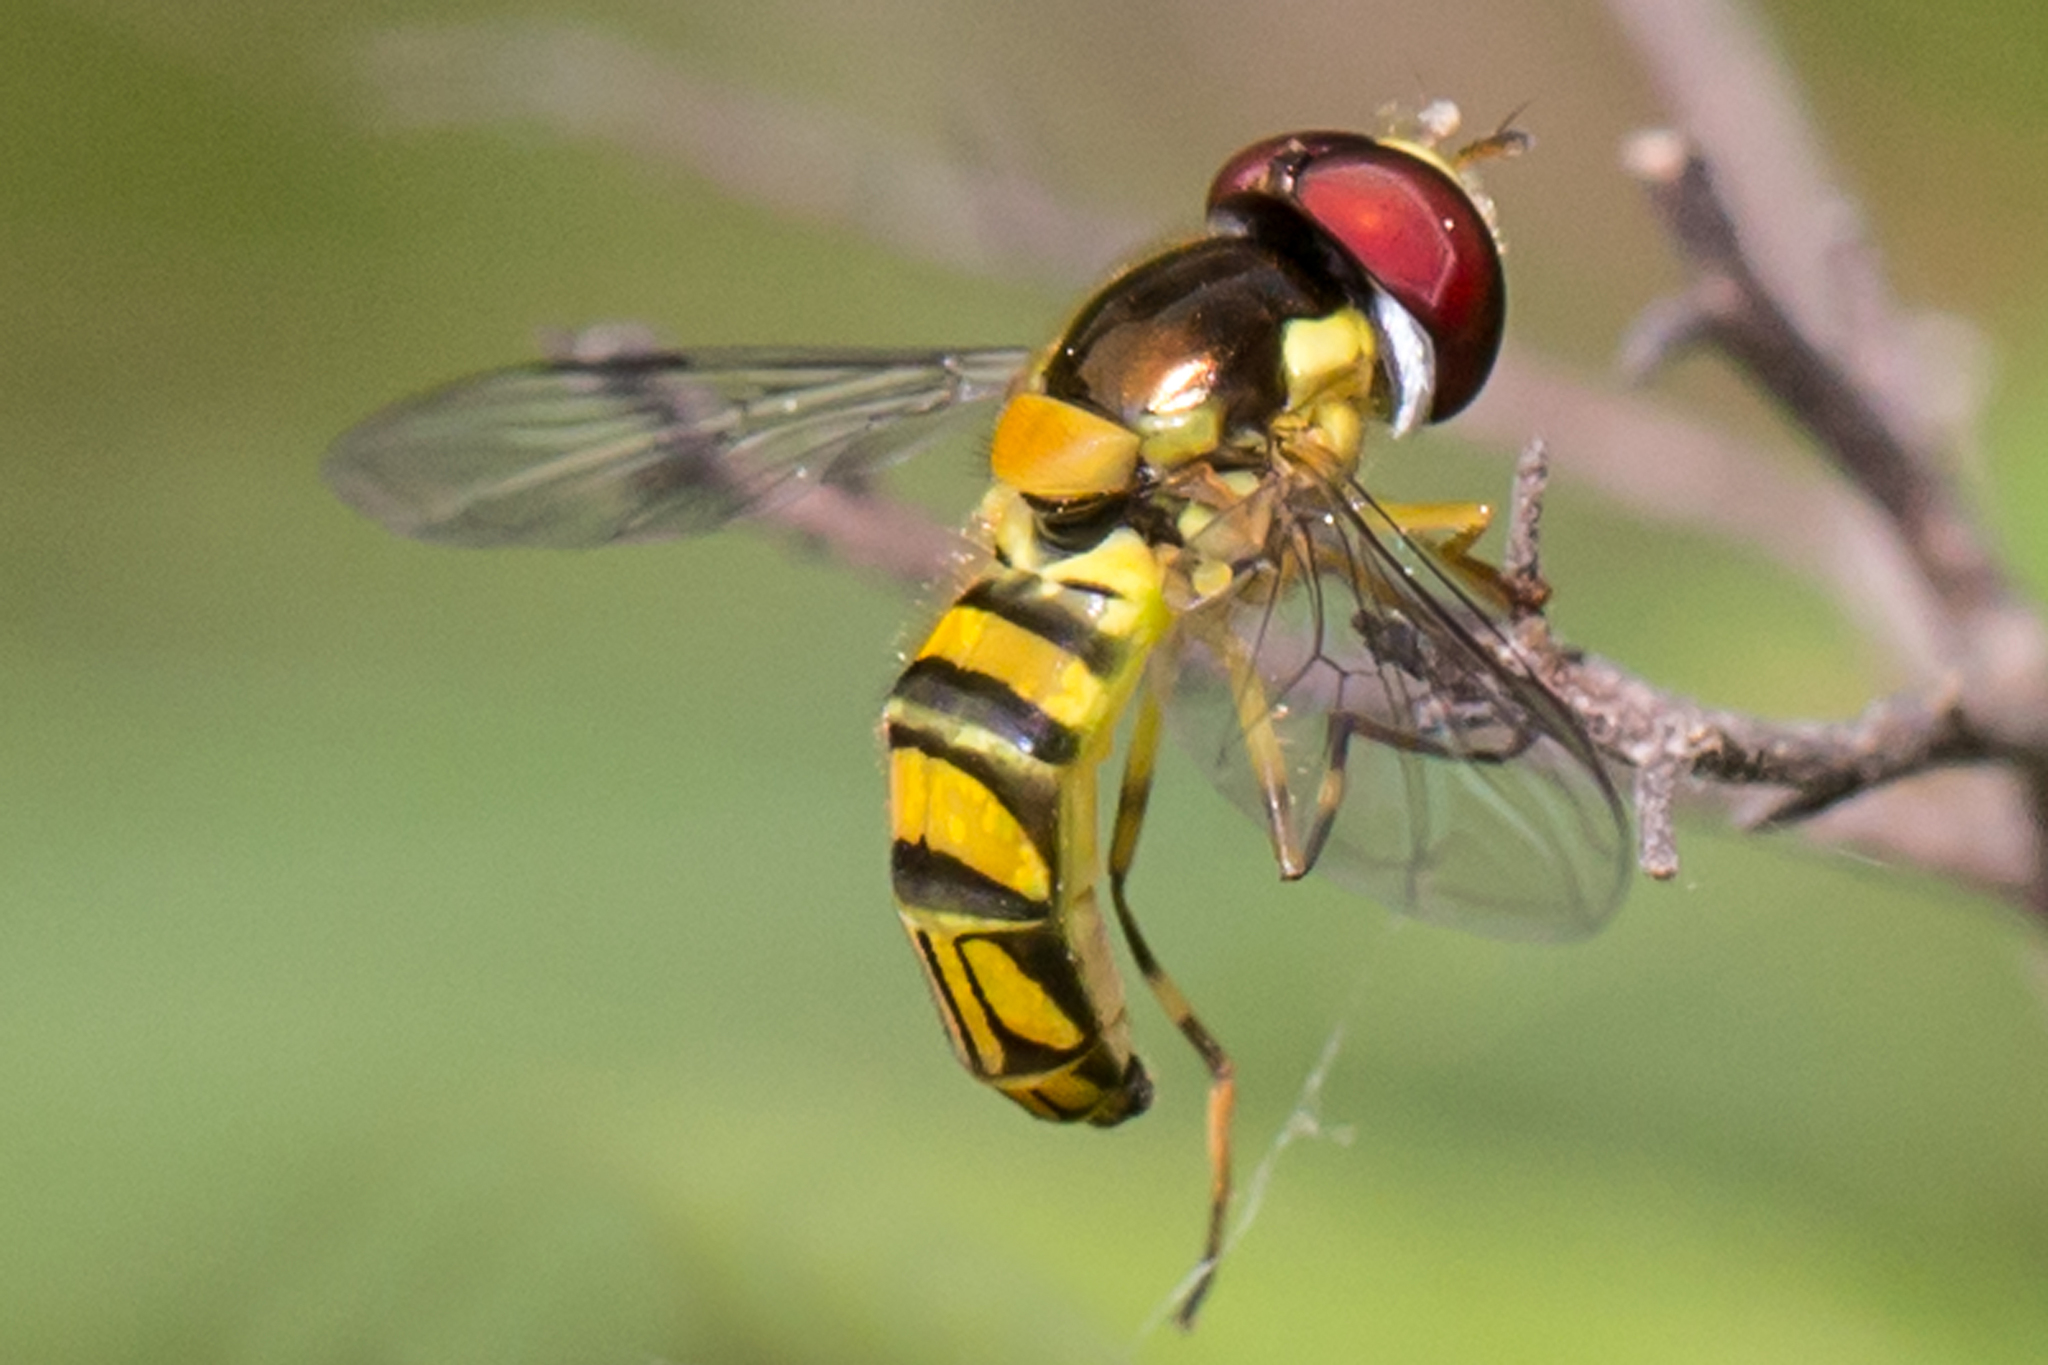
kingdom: Animalia
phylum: Arthropoda
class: Insecta
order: Diptera
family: Syrphidae
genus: Allograpta
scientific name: Allograpta obliqua
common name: Common oblique syrphid
